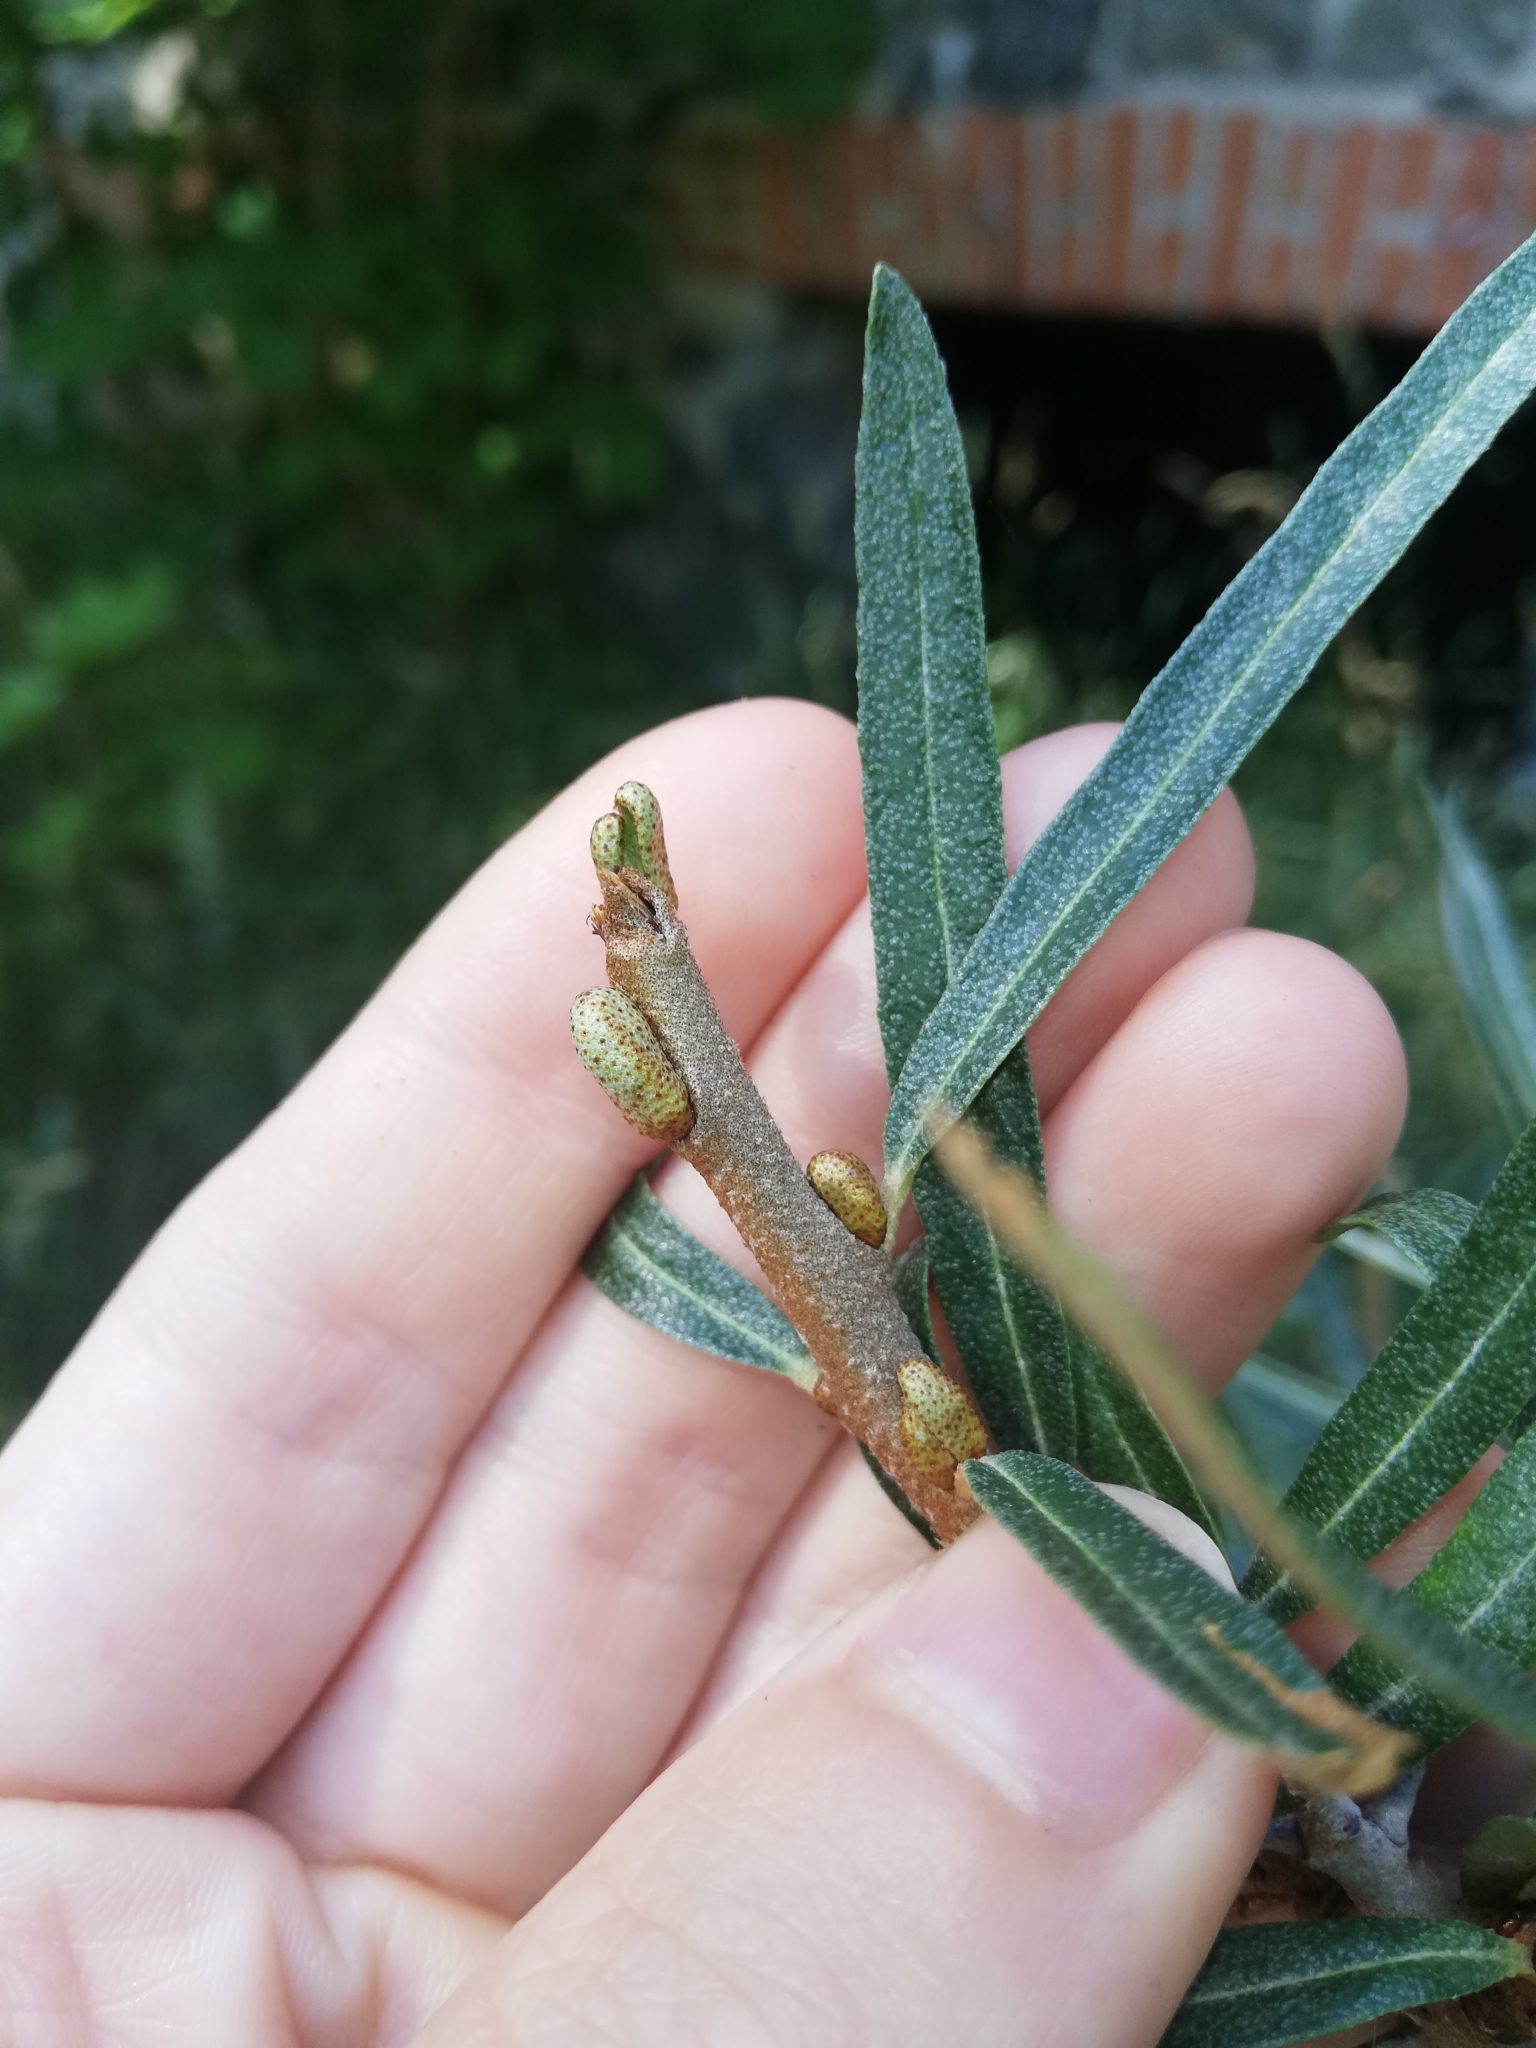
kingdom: Plantae
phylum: Tracheophyta
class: Magnoliopsida
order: Rosales
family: Elaeagnaceae
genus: Hippophae
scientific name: Hippophae rhamnoides
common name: Sea-buckthorn
